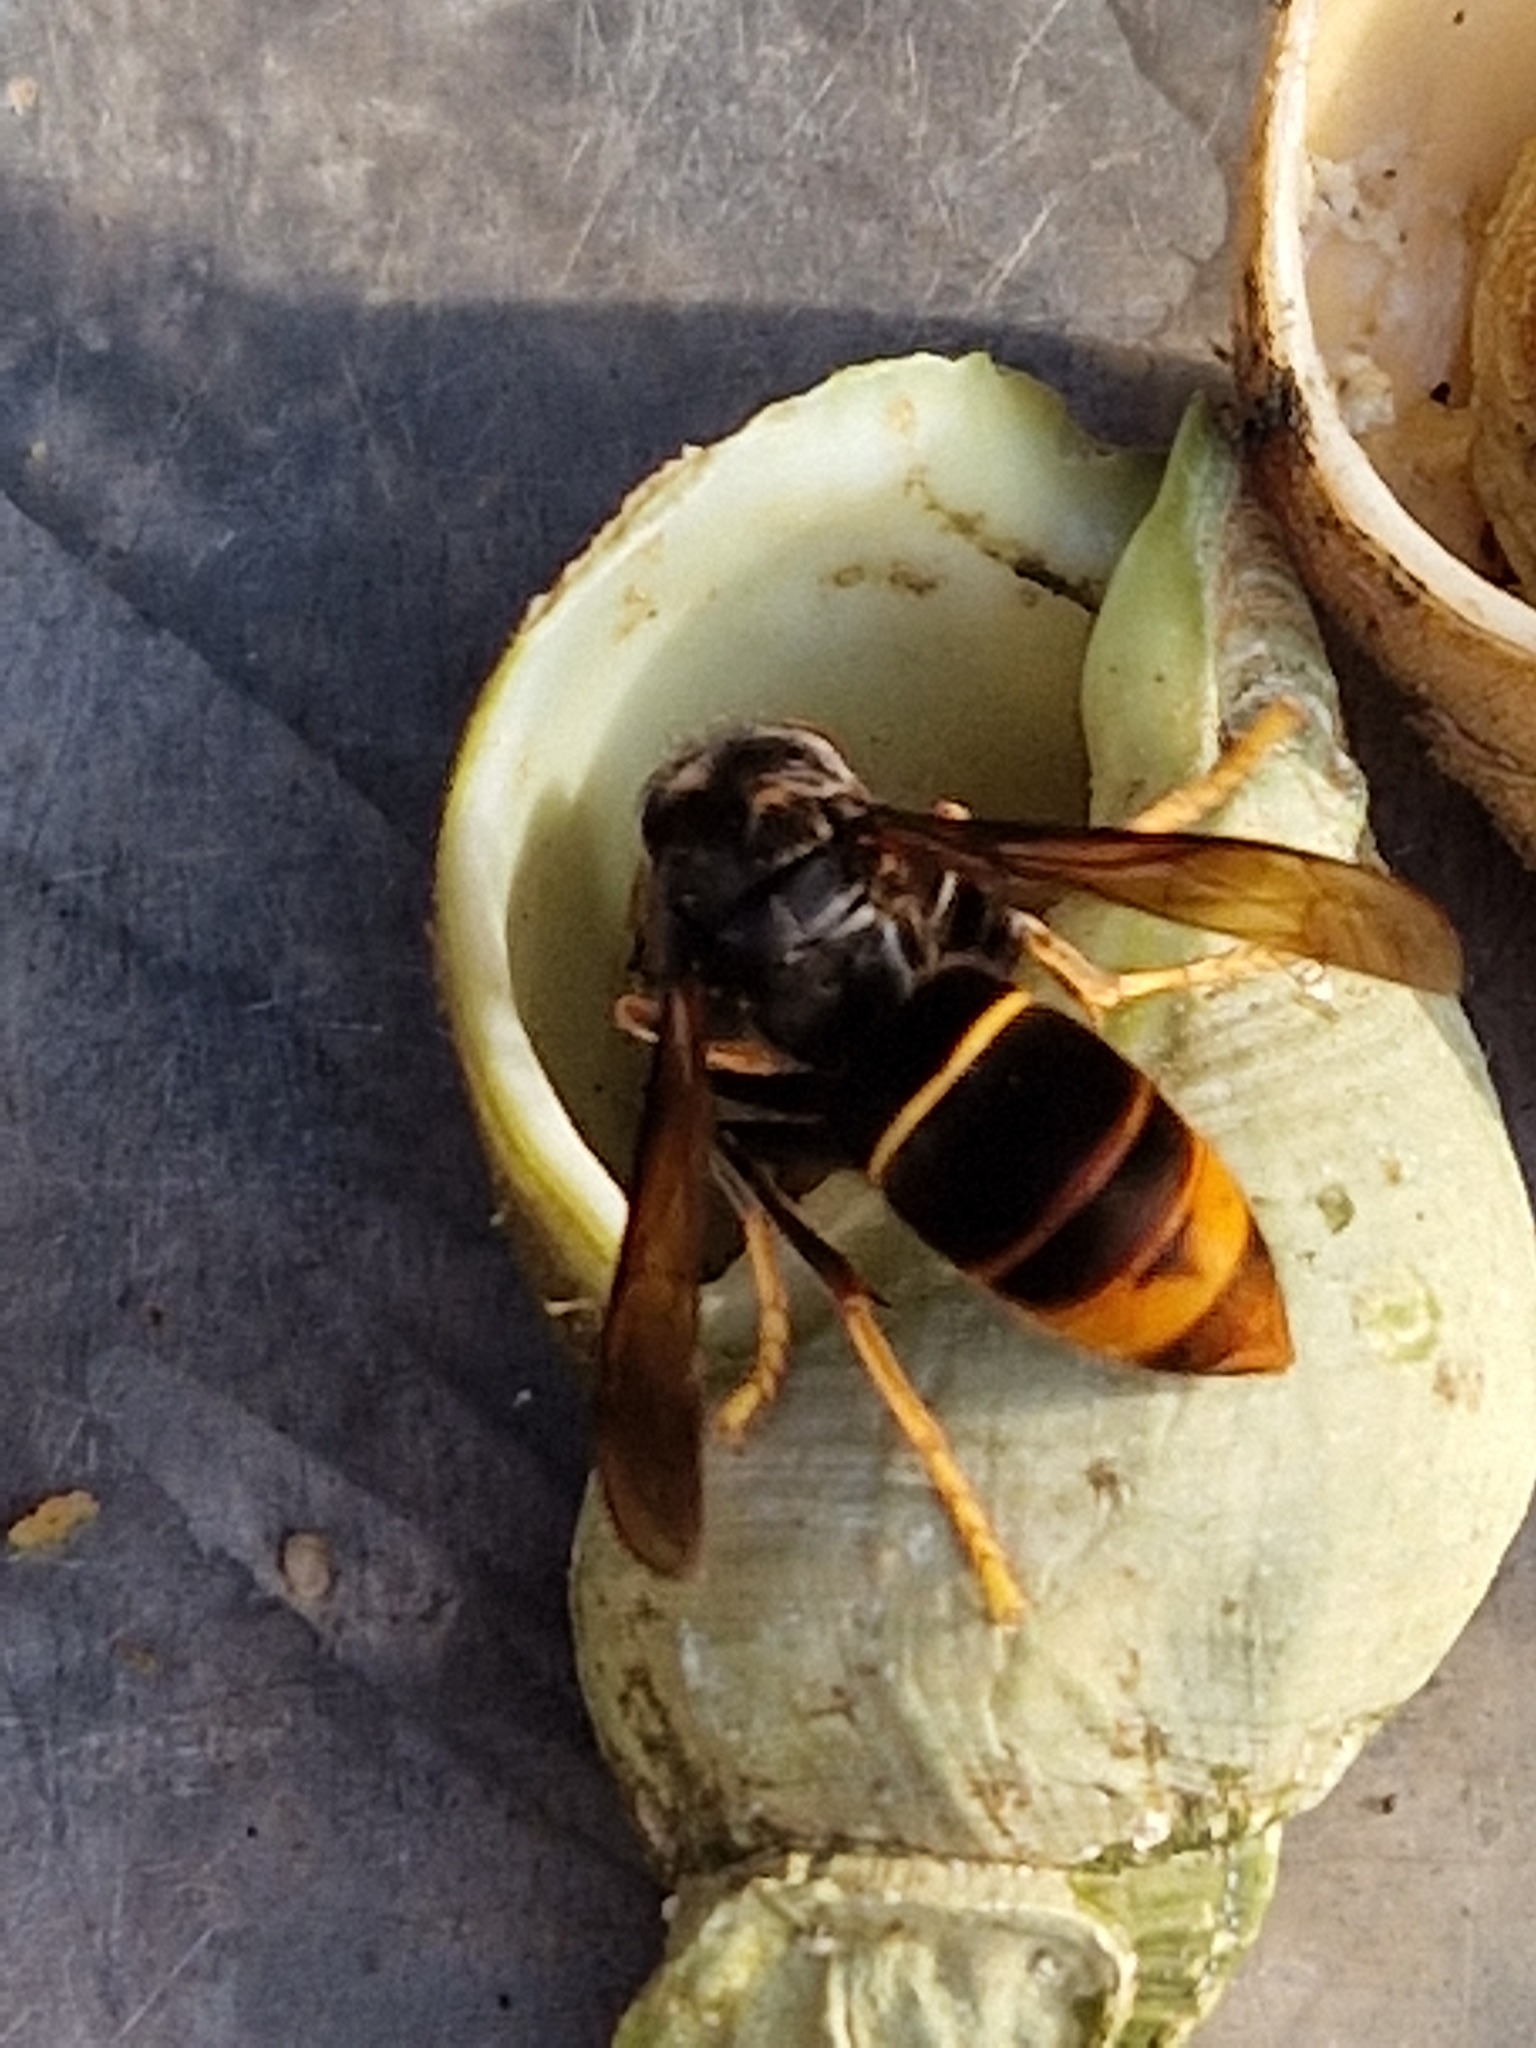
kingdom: Animalia
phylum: Arthropoda
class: Insecta
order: Hymenoptera
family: Vespidae
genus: Vespa
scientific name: Vespa velutina
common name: Asian hornet
